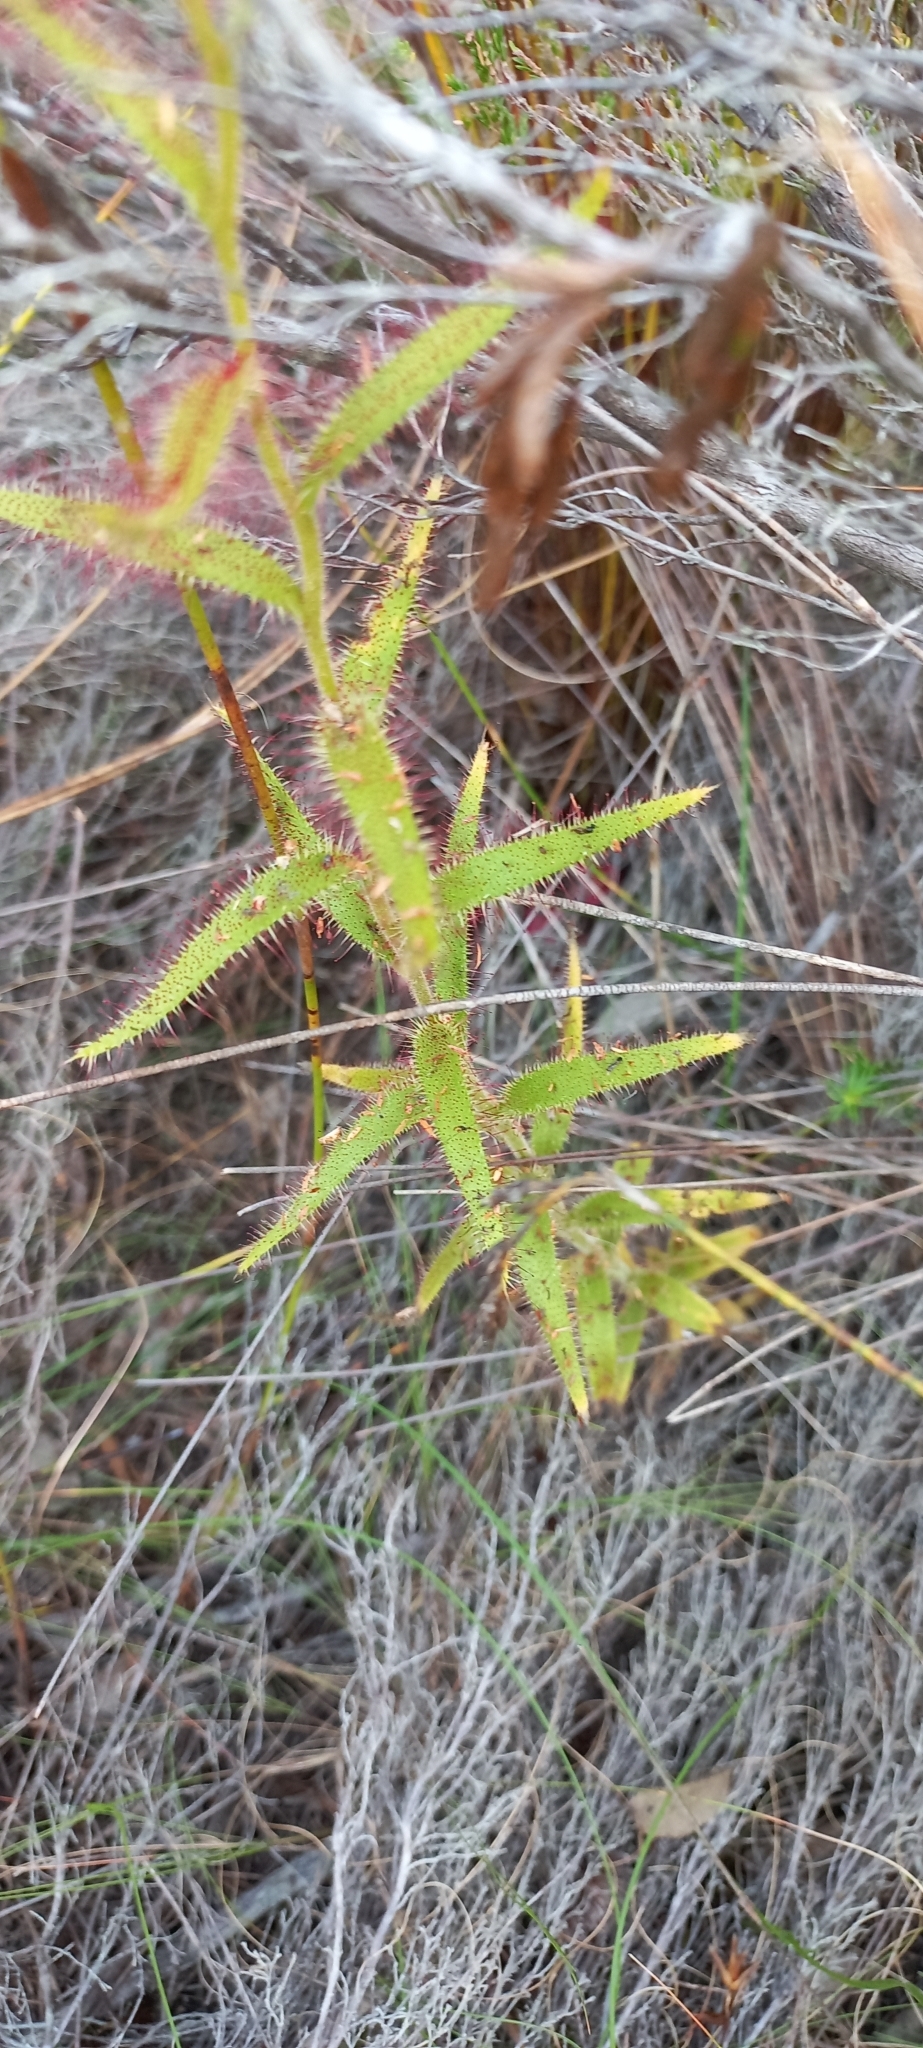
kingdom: Plantae
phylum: Tracheophyta
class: Magnoliopsida
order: Caryophyllales
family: Droseraceae
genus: Drosera
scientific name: Drosera cistiflora
